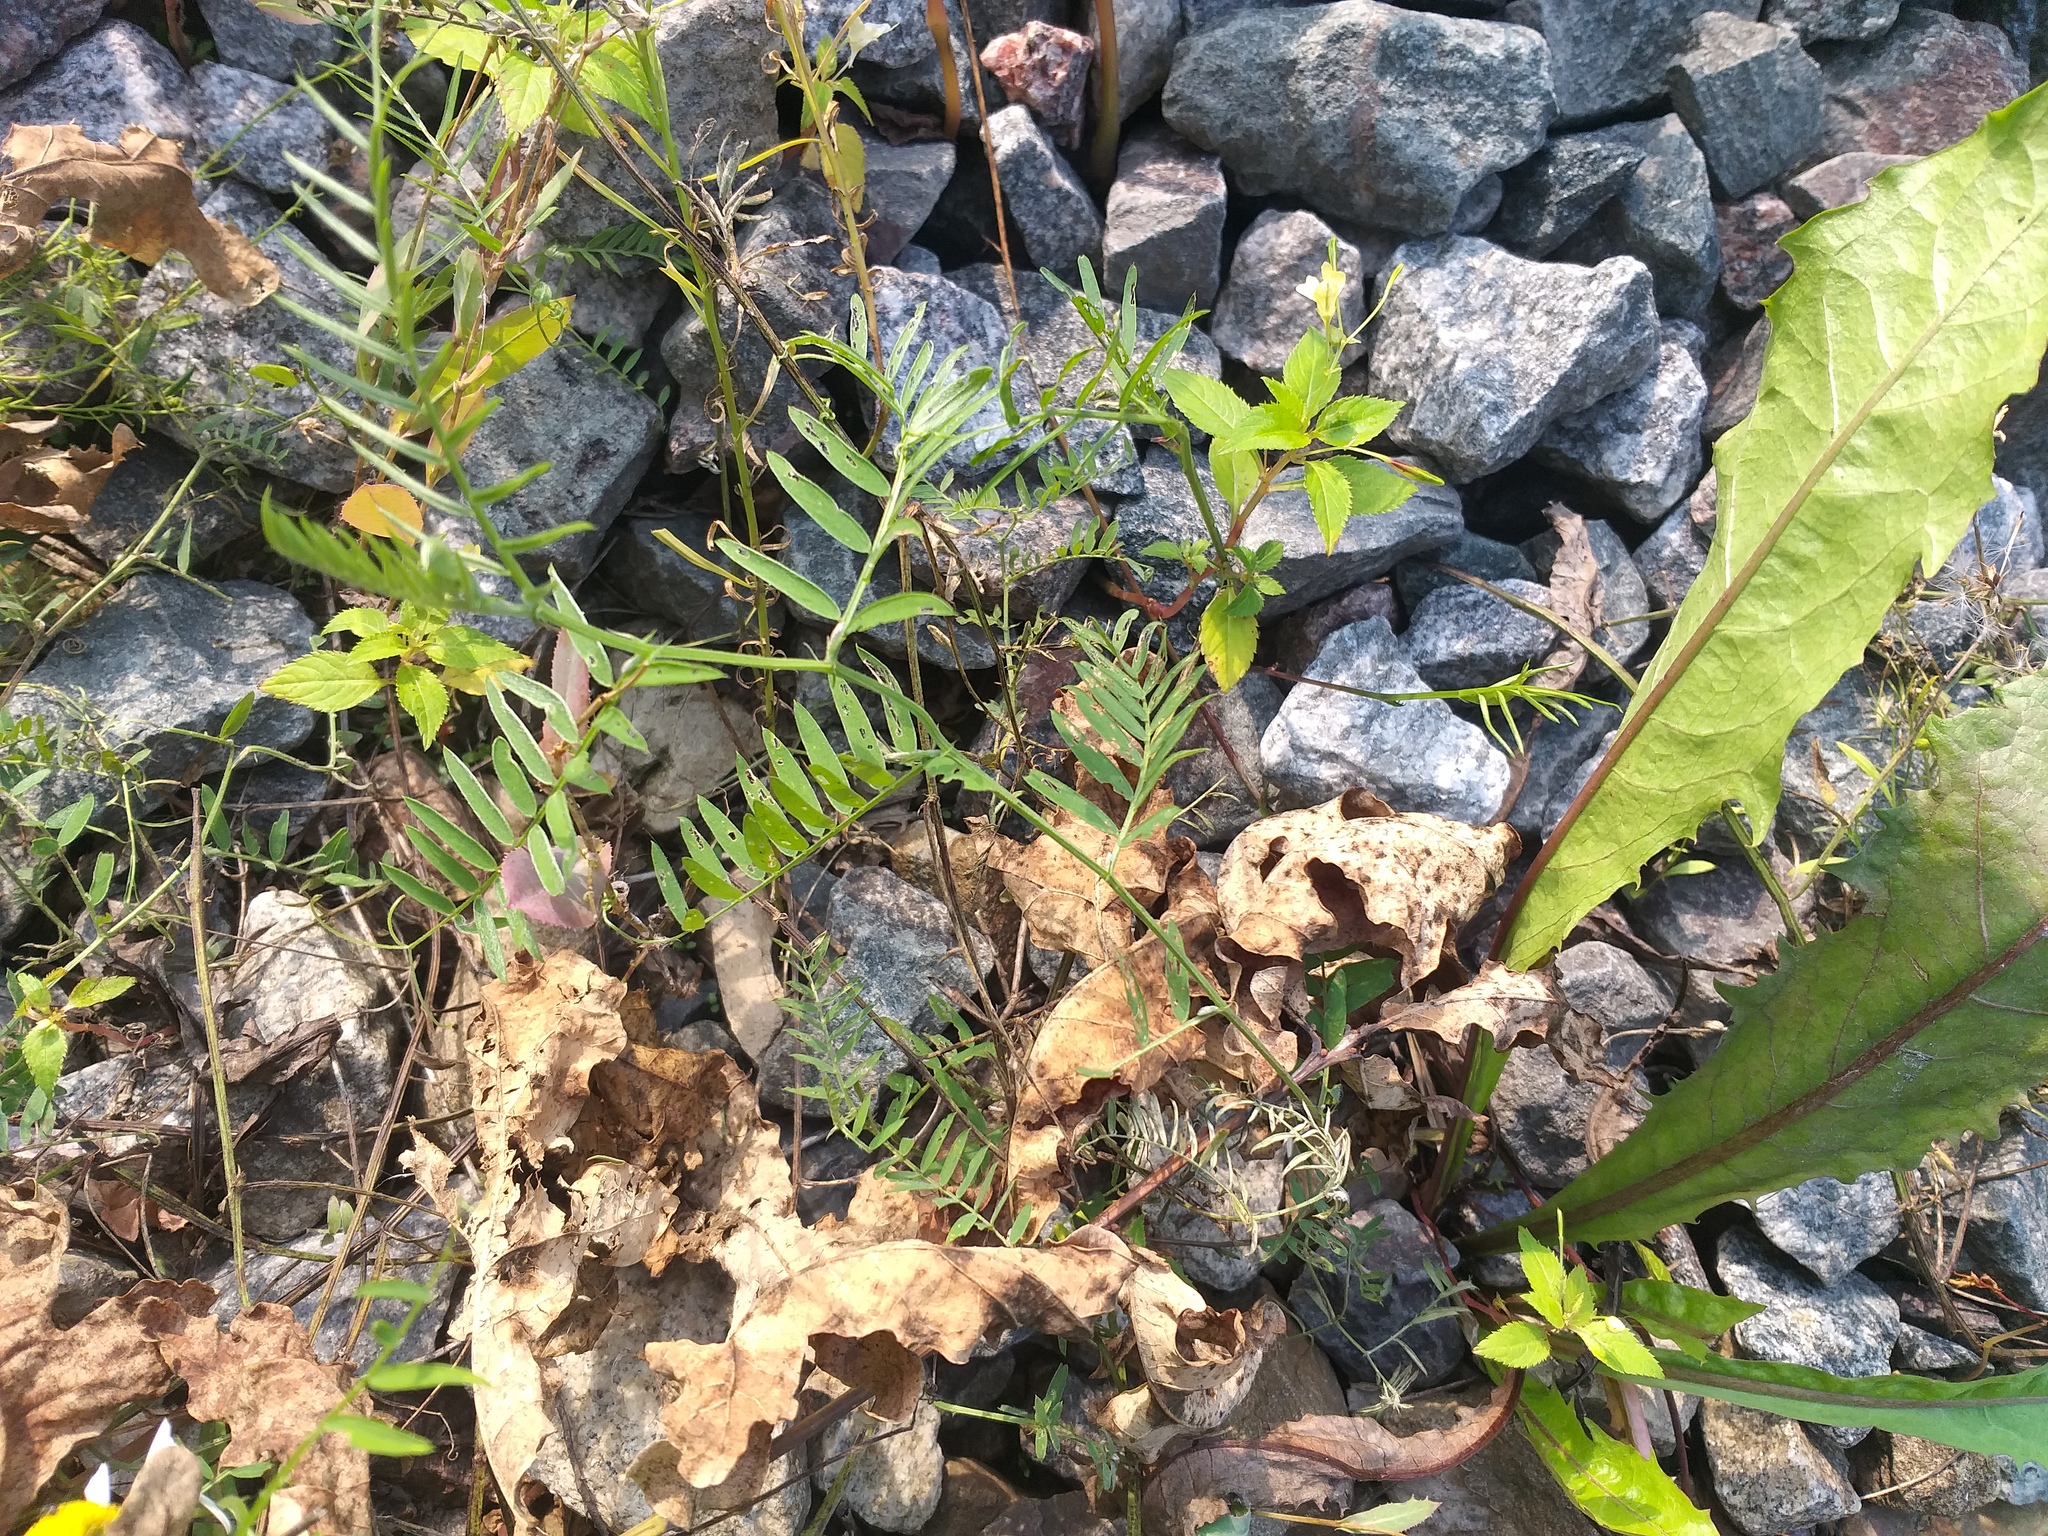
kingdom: Plantae
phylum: Tracheophyta
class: Magnoliopsida
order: Fabales
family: Fabaceae
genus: Vicia
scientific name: Vicia cracca
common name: Bird vetch
